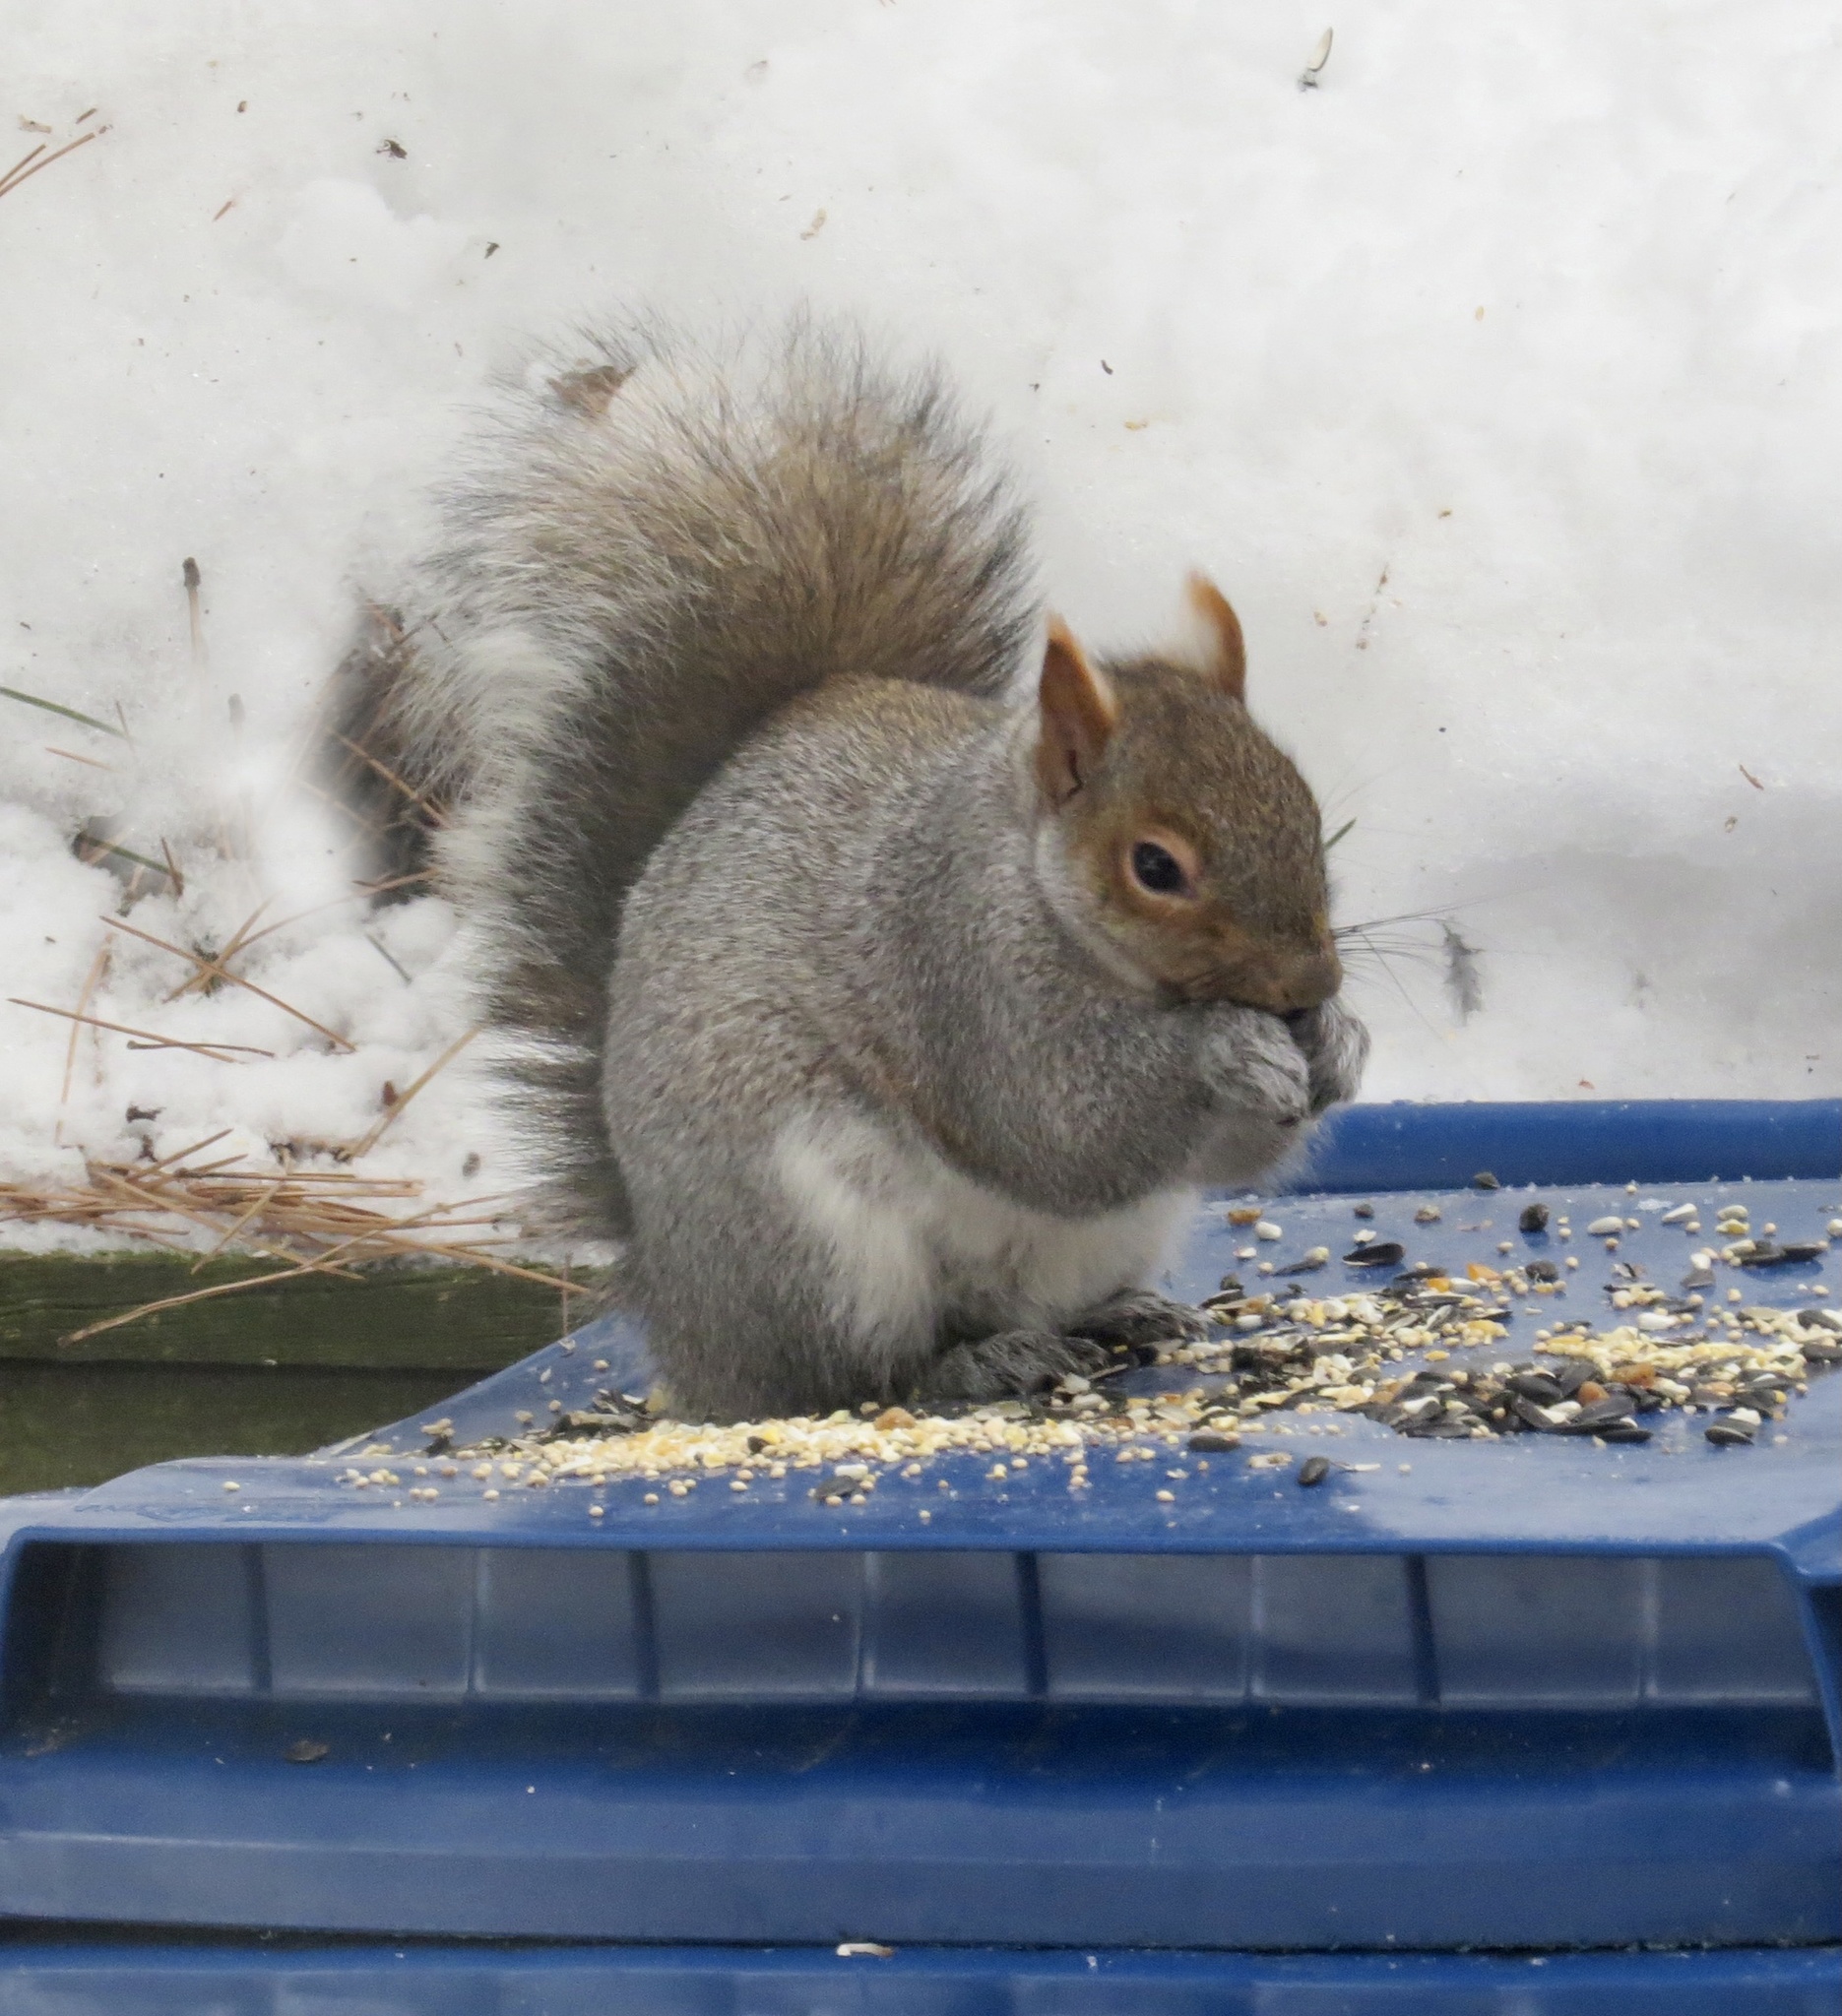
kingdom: Animalia
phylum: Chordata
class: Mammalia
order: Rodentia
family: Sciuridae
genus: Sciurus
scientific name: Sciurus carolinensis
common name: Eastern gray squirrel
